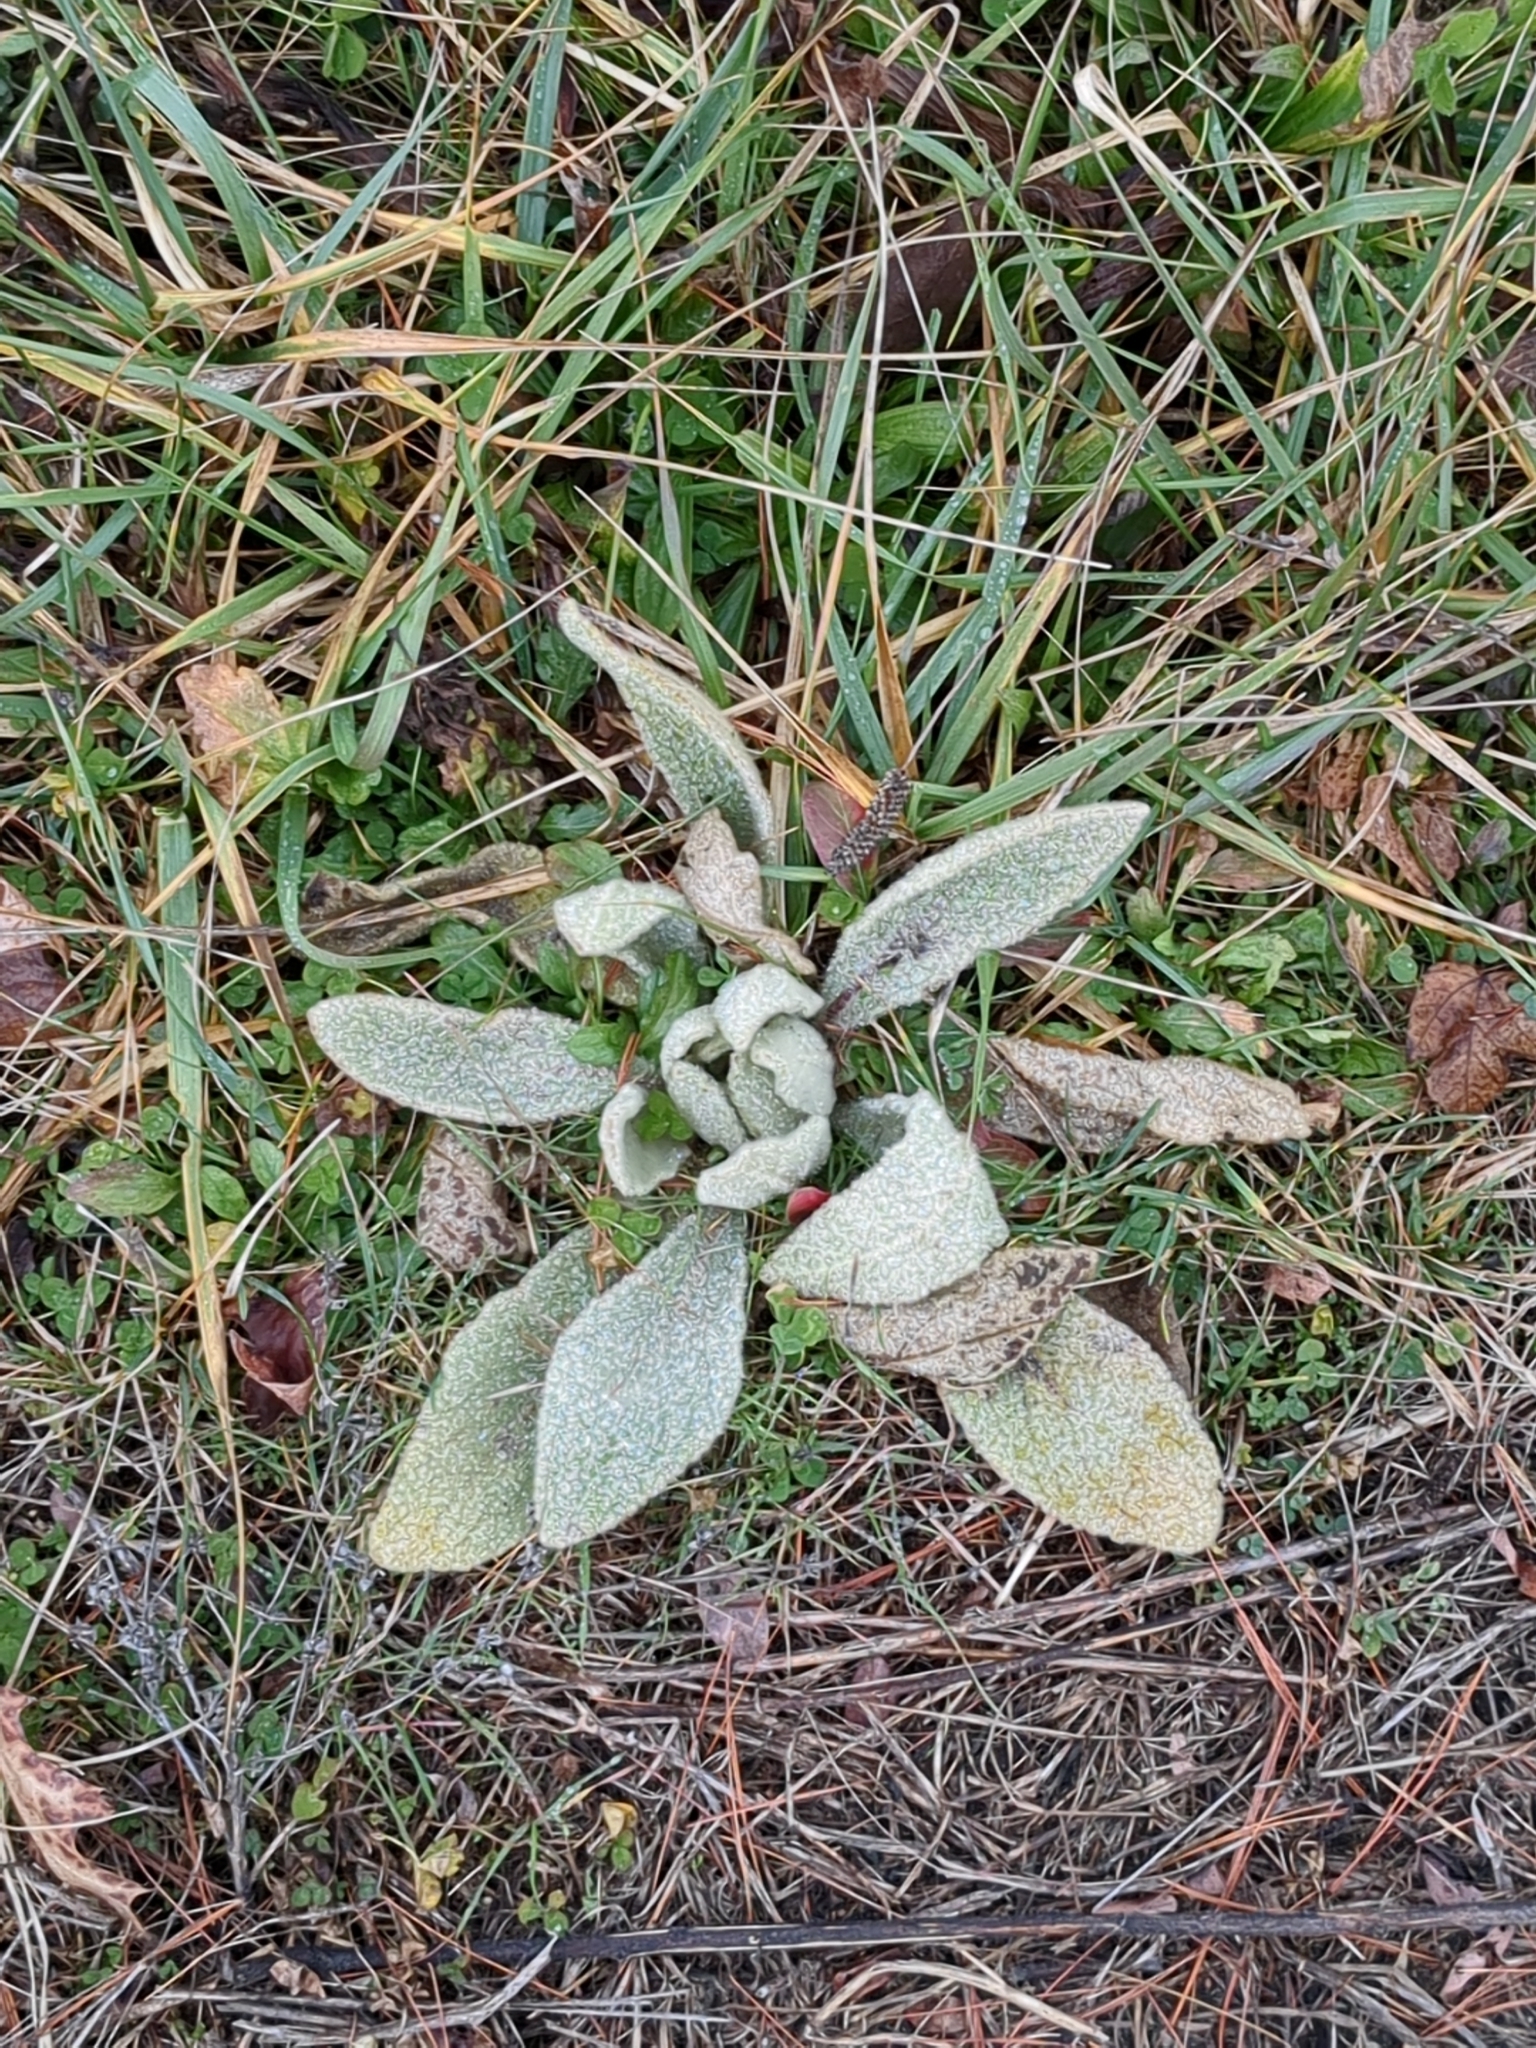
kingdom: Plantae
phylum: Tracheophyta
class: Magnoliopsida
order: Lamiales
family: Scrophulariaceae
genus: Verbascum
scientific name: Verbascum thapsus
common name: Common mullein
